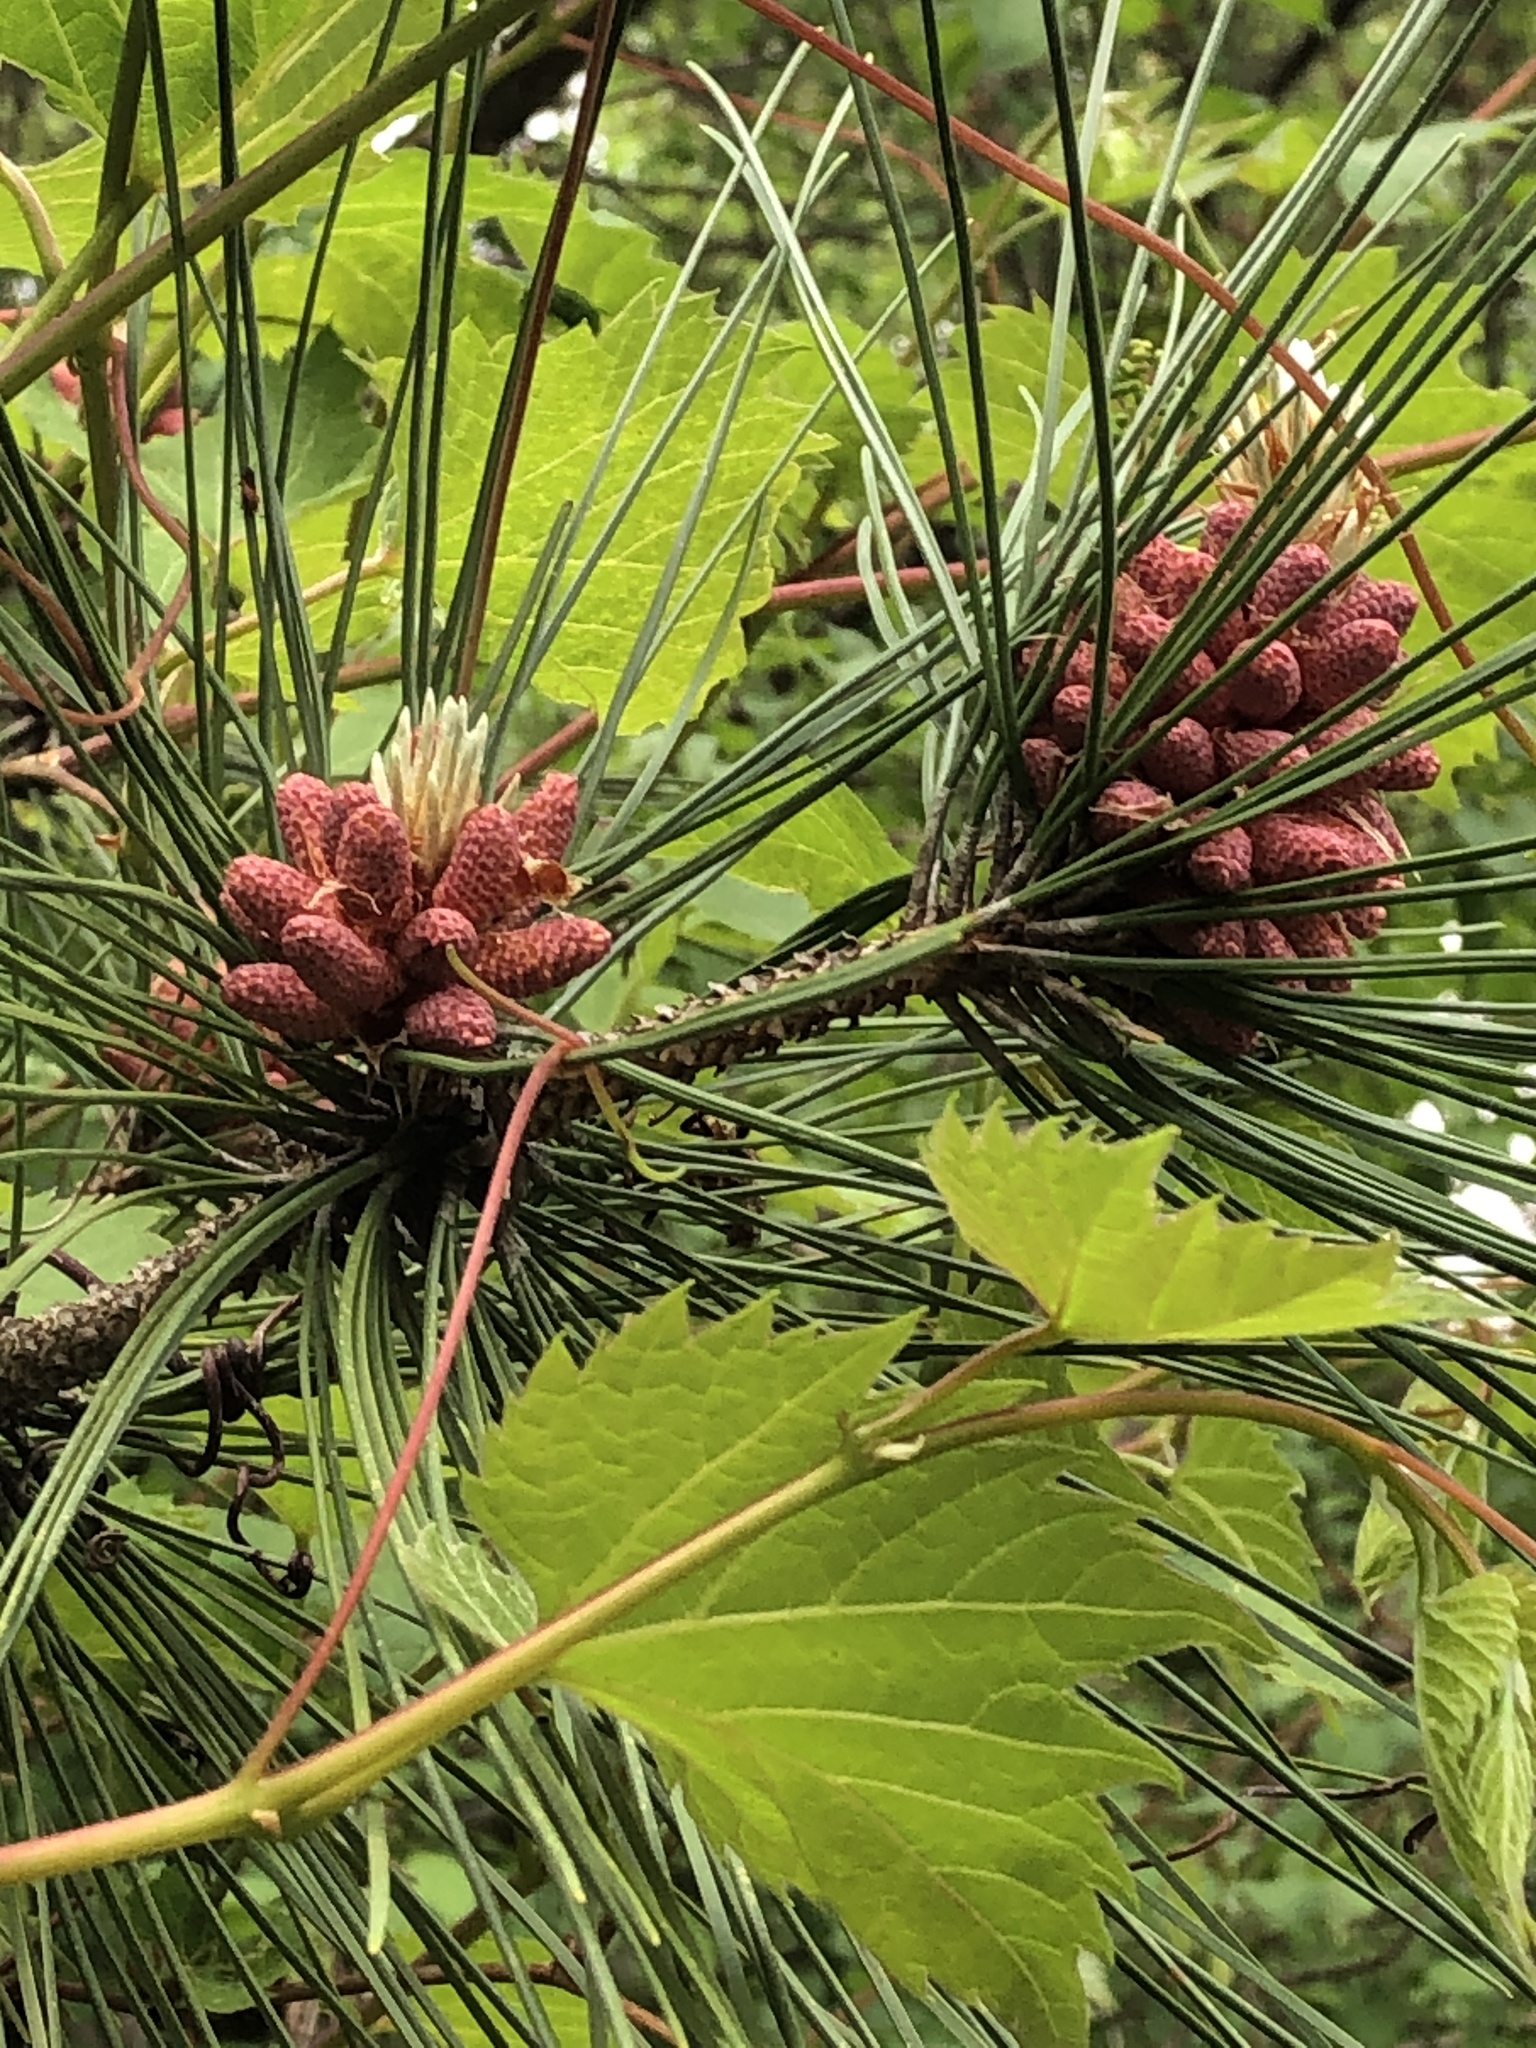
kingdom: Plantae
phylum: Tracheophyta
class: Pinopsida
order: Pinales
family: Pinaceae
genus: Pinus
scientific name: Pinus resinosa
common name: Norway pine
